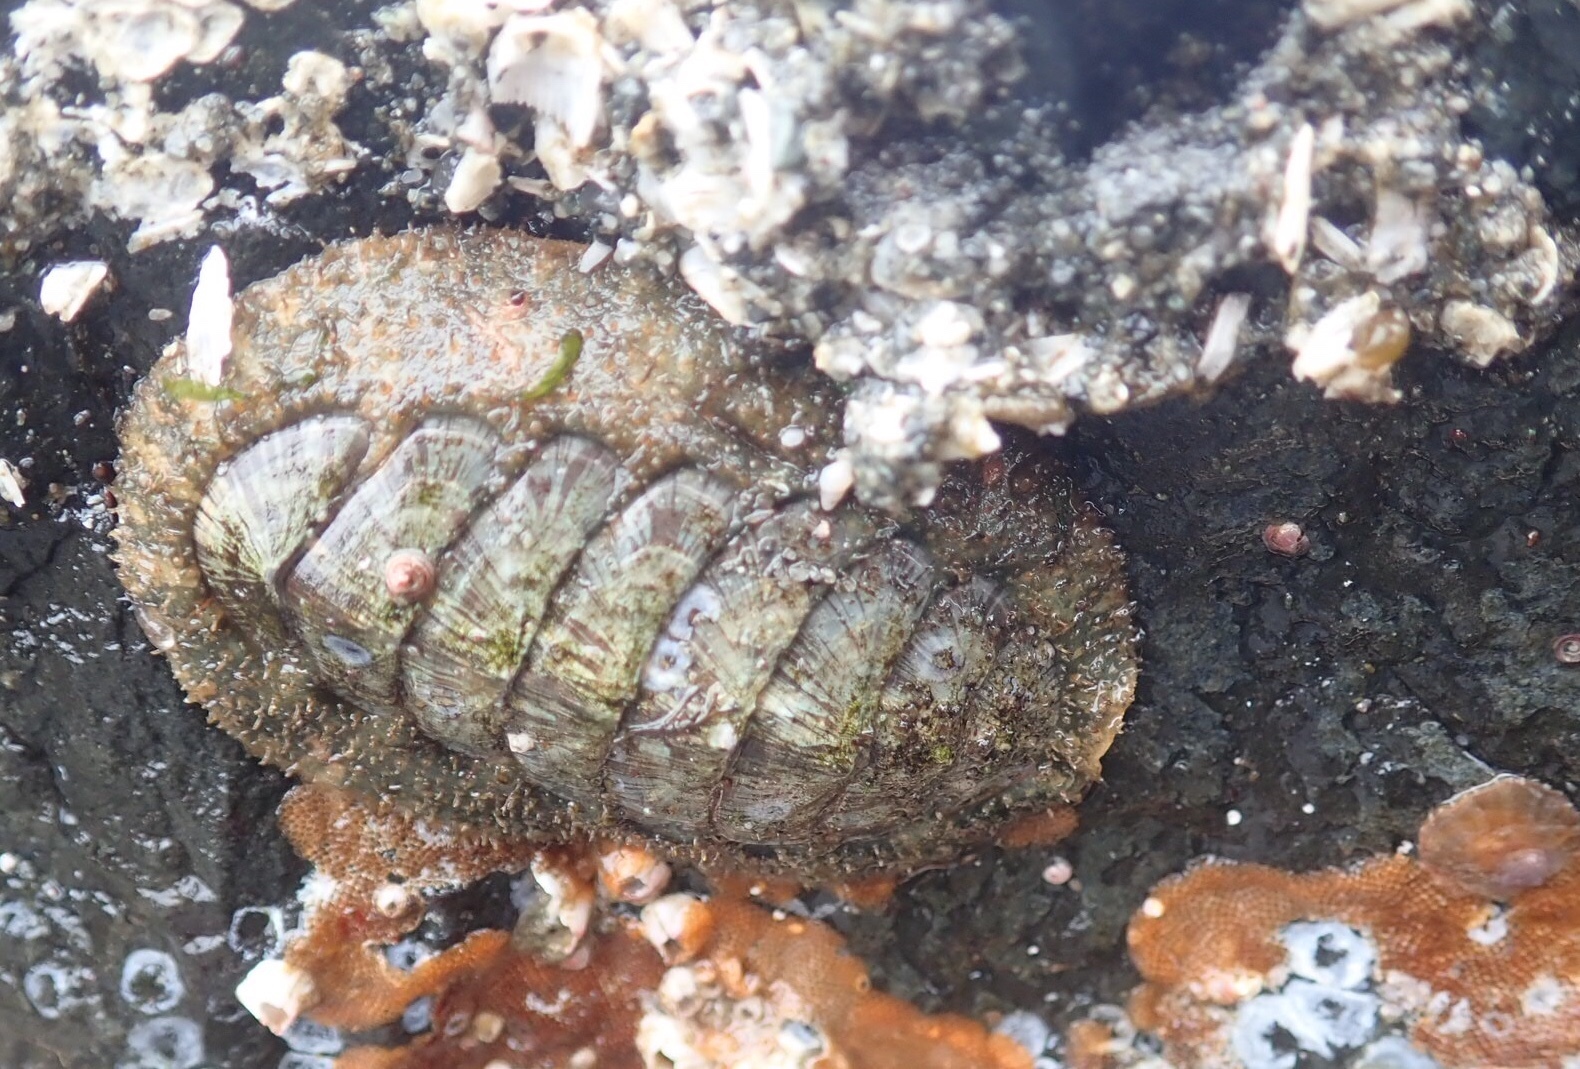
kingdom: Animalia
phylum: Mollusca
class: Polyplacophora
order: Chitonida
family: Mopaliidae
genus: Mopalia
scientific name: Mopalia lignosa
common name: Woody chiton
